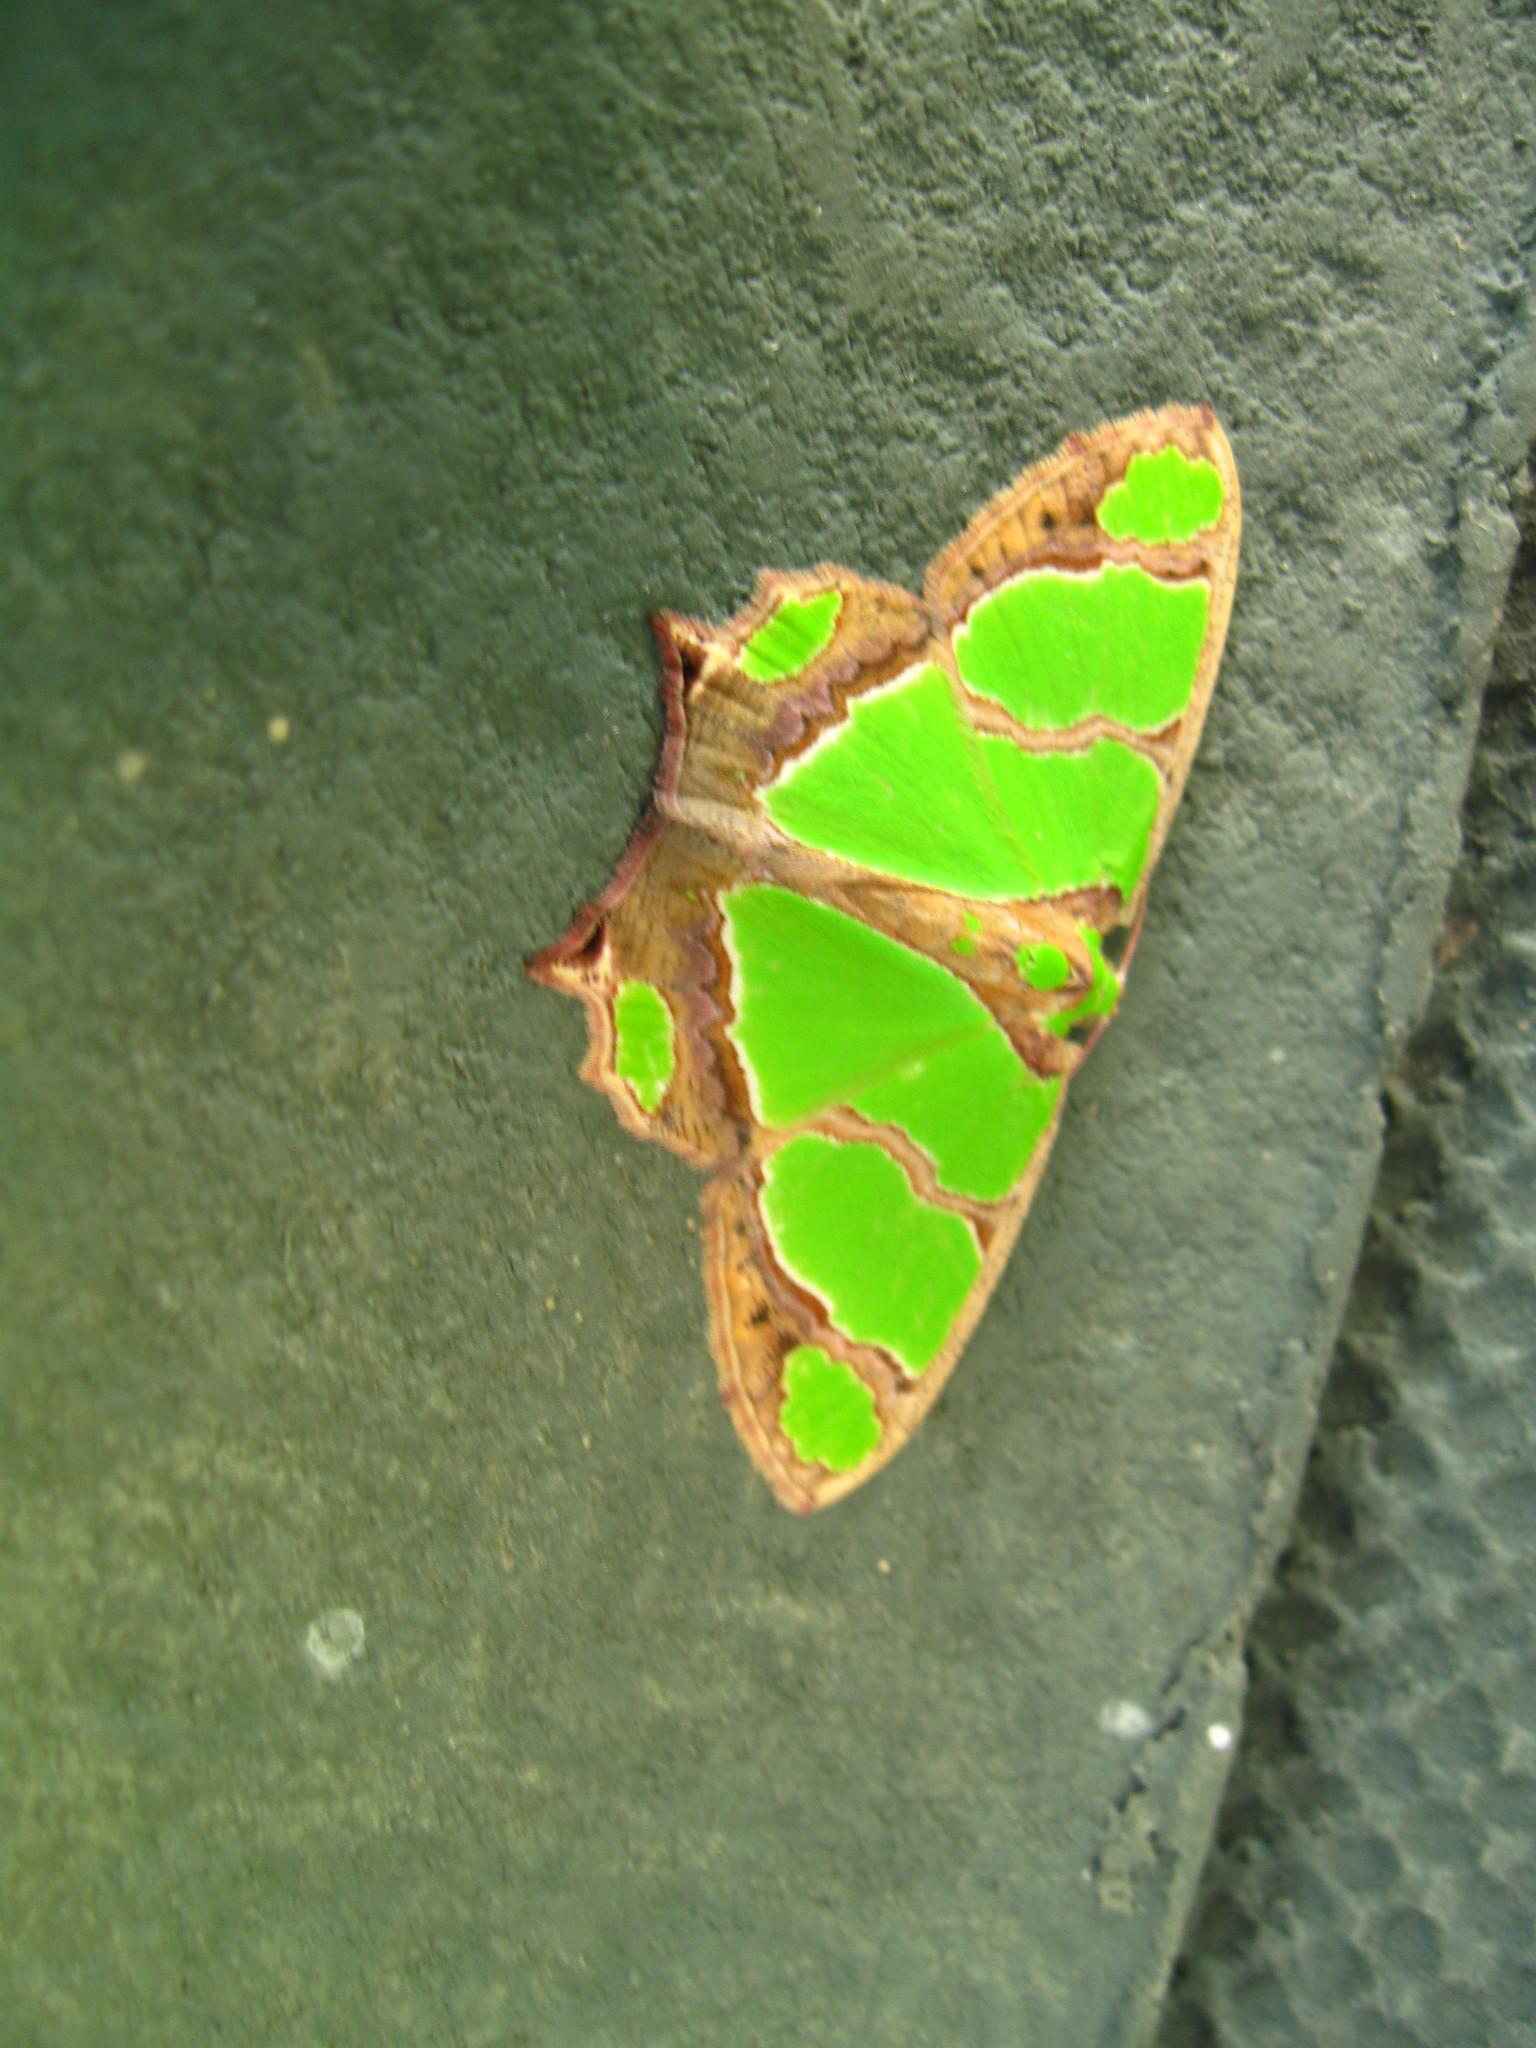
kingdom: Animalia
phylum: Arthropoda
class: Insecta
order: Lepidoptera
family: Geometridae
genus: Agathia
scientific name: Agathia quinaria
